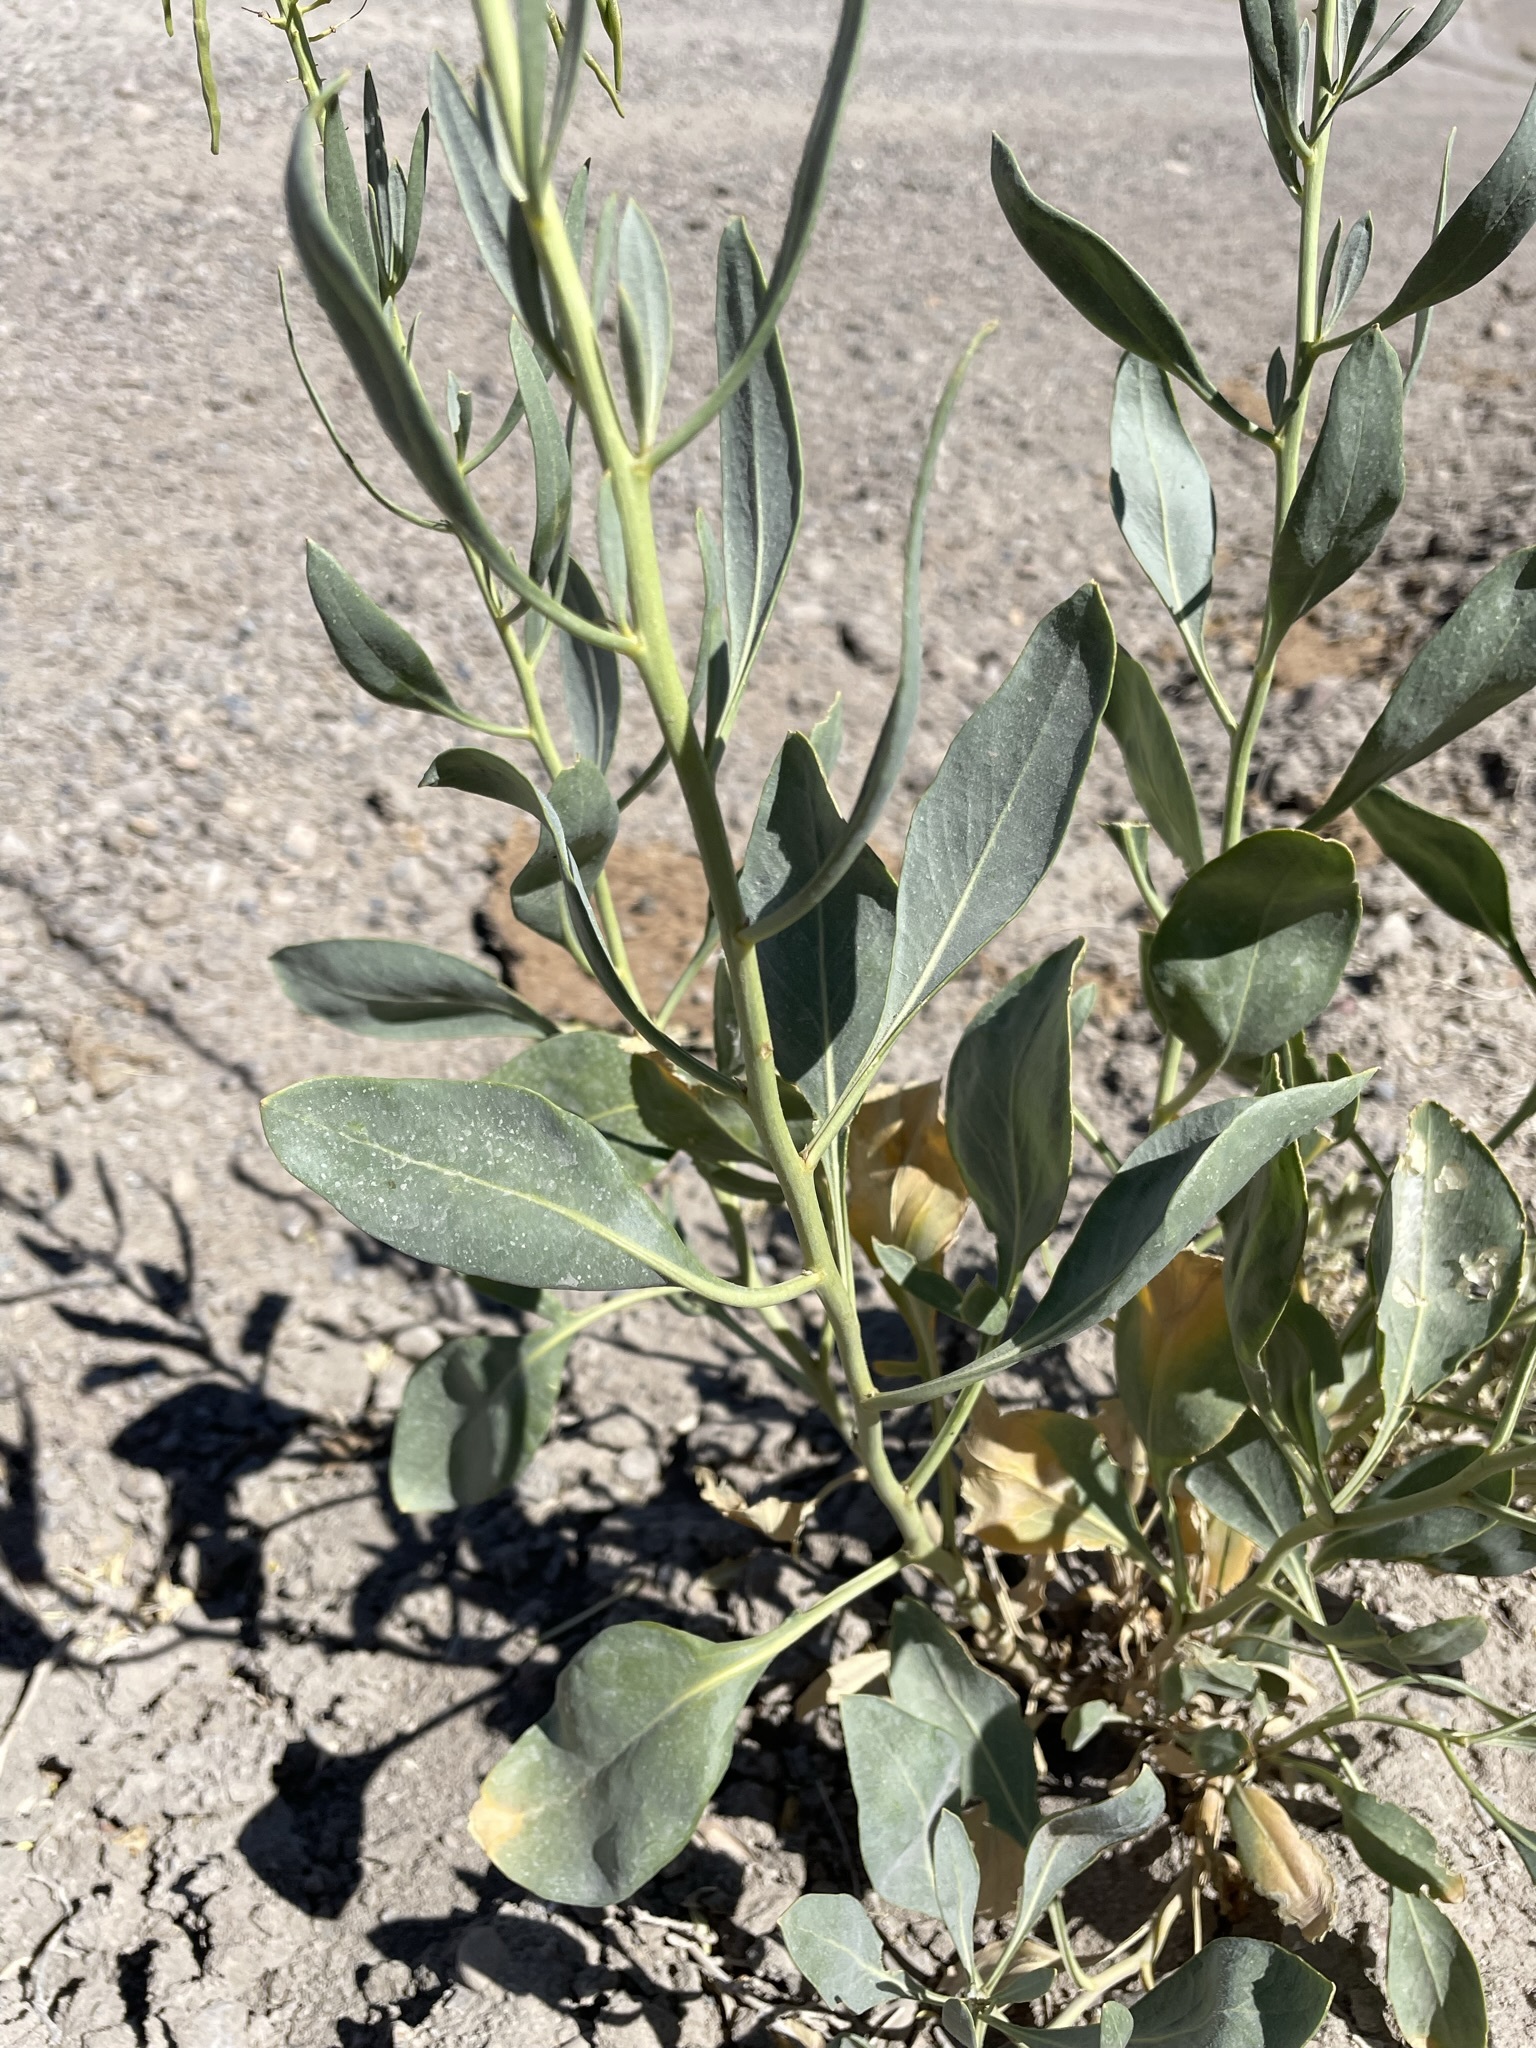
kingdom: Plantae
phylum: Tracheophyta
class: Magnoliopsida
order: Brassicales
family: Brassicaceae
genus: Stanleya
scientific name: Stanleya pinnata
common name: Prince's-plume
